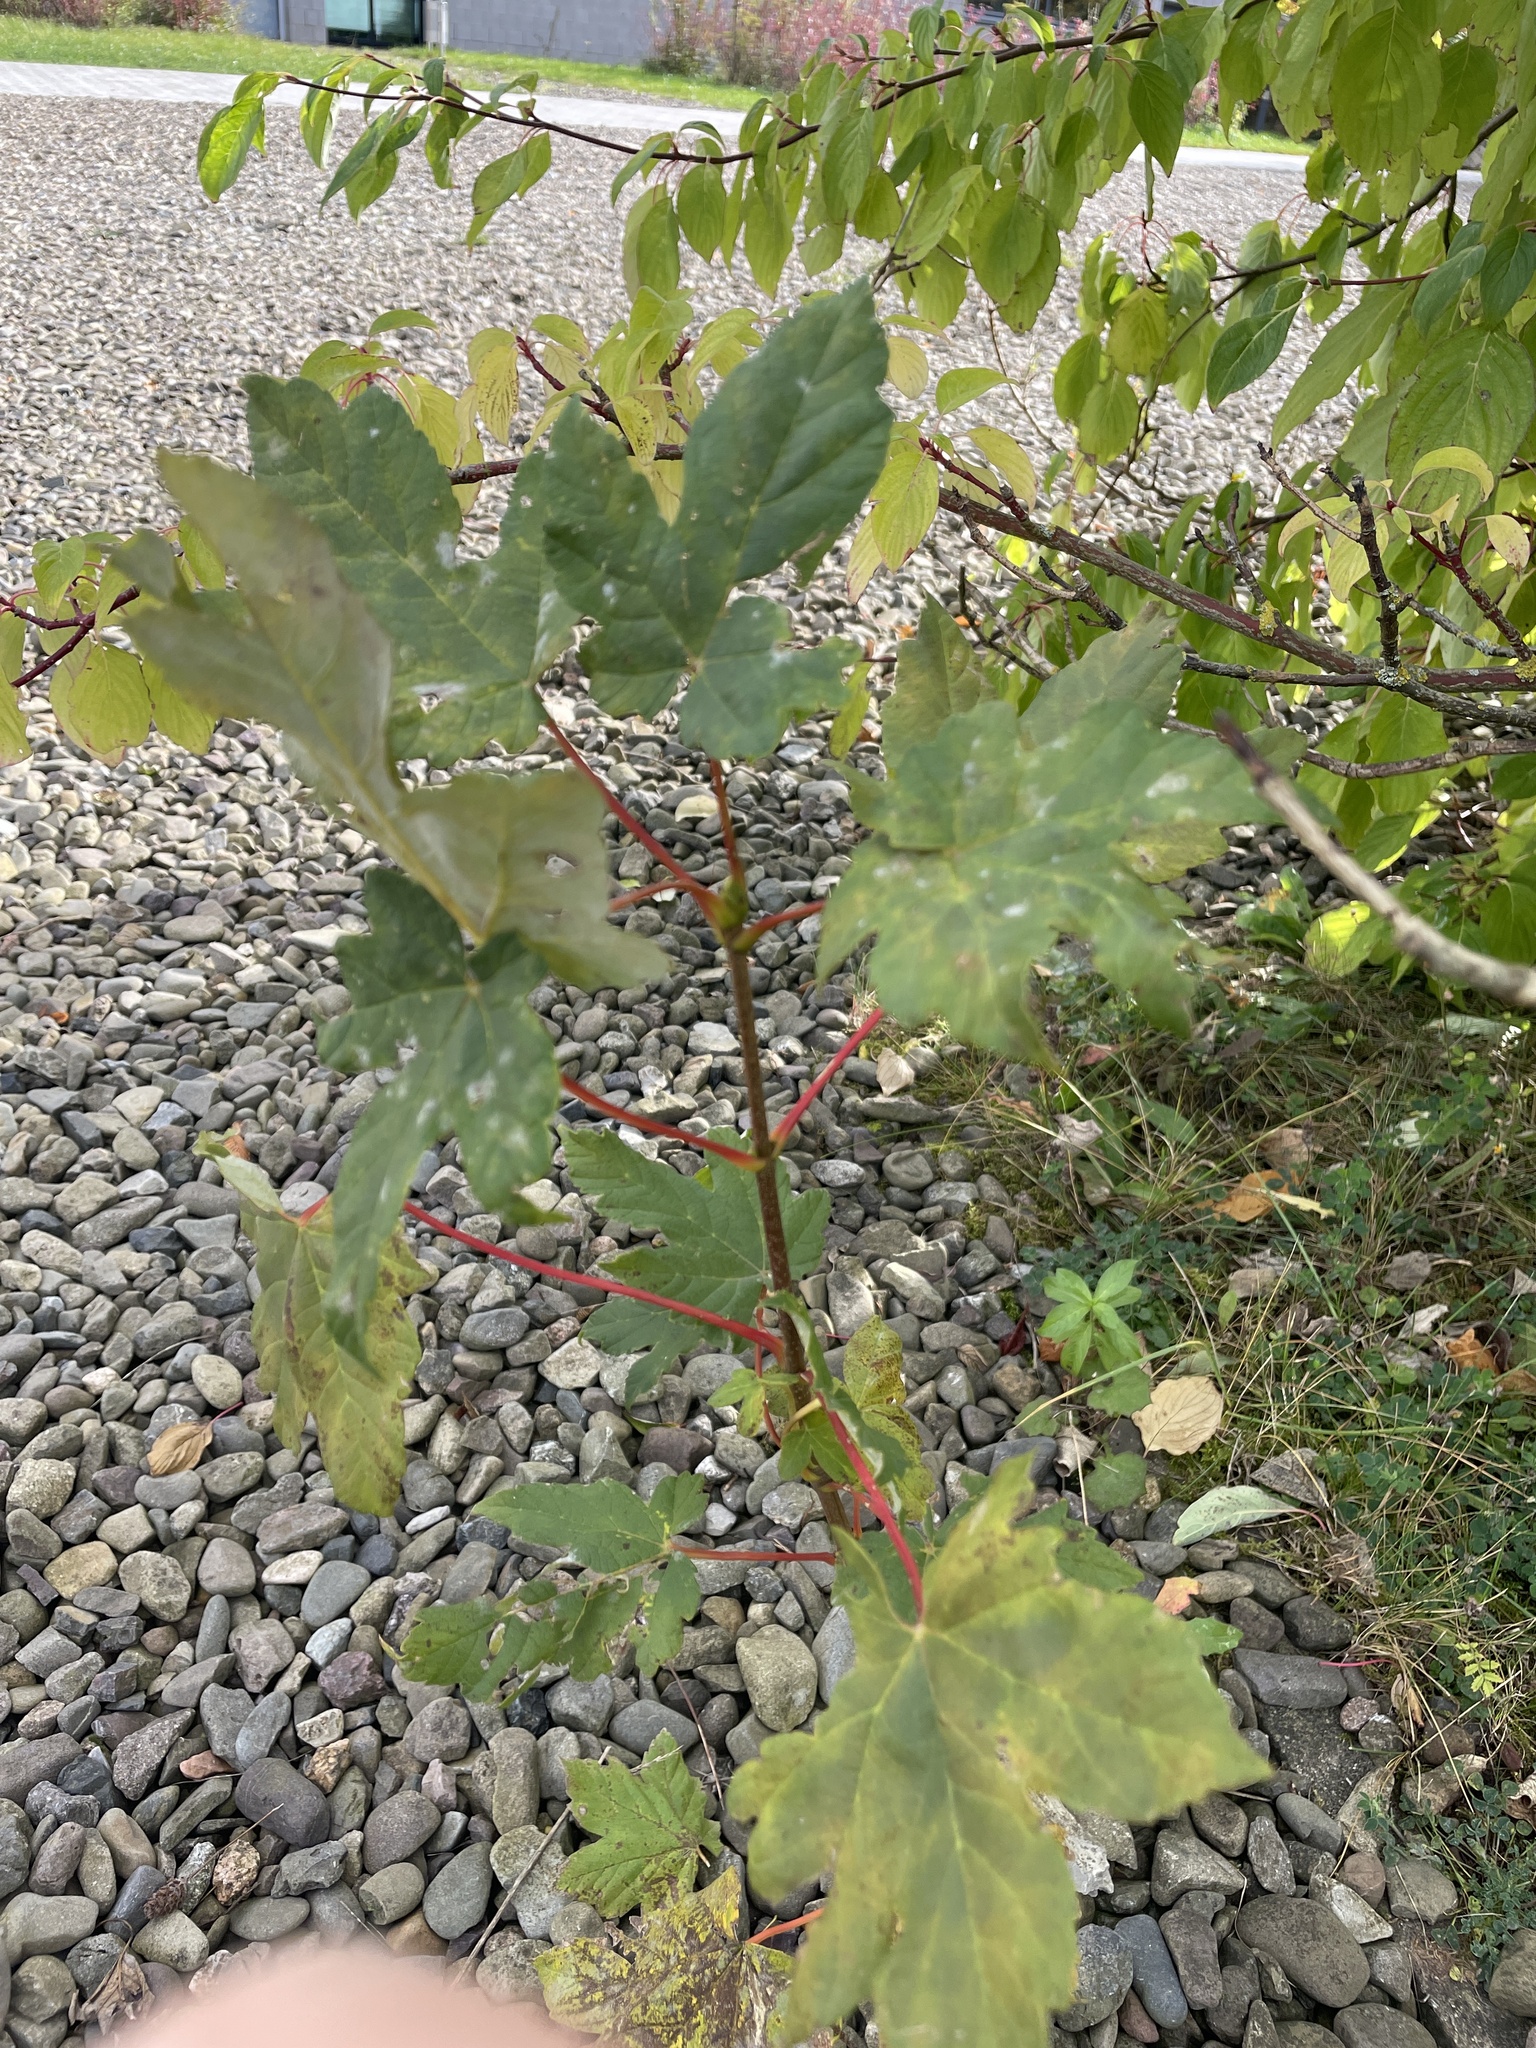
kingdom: Plantae
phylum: Tracheophyta
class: Magnoliopsida
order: Sapindales
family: Sapindaceae
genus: Acer
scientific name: Acer pseudoplatanus
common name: Sycamore
